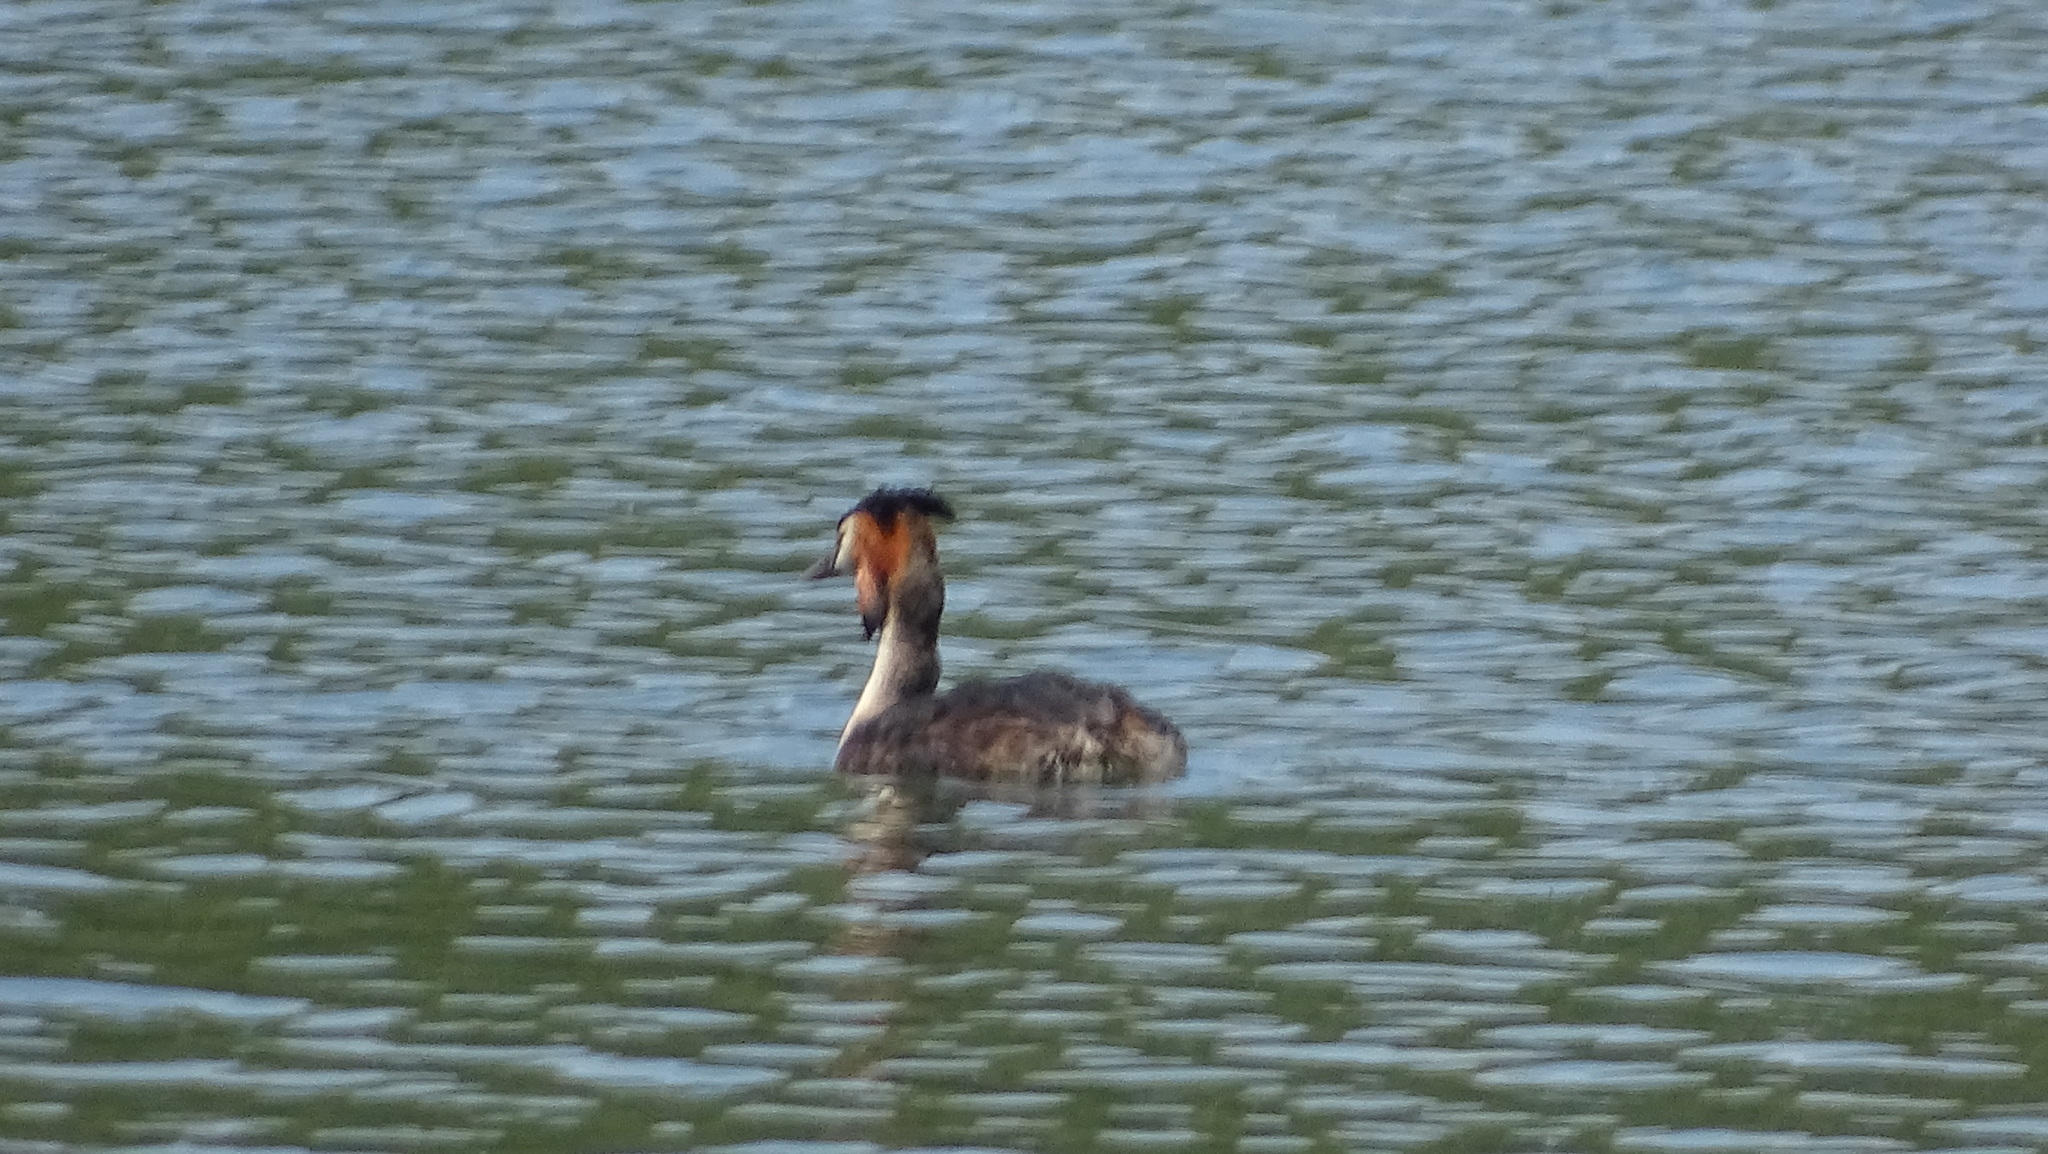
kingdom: Animalia
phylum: Chordata
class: Aves
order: Podicipediformes
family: Podicipedidae
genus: Podiceps
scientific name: Podiceps cristatus
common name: Great crested grebe
